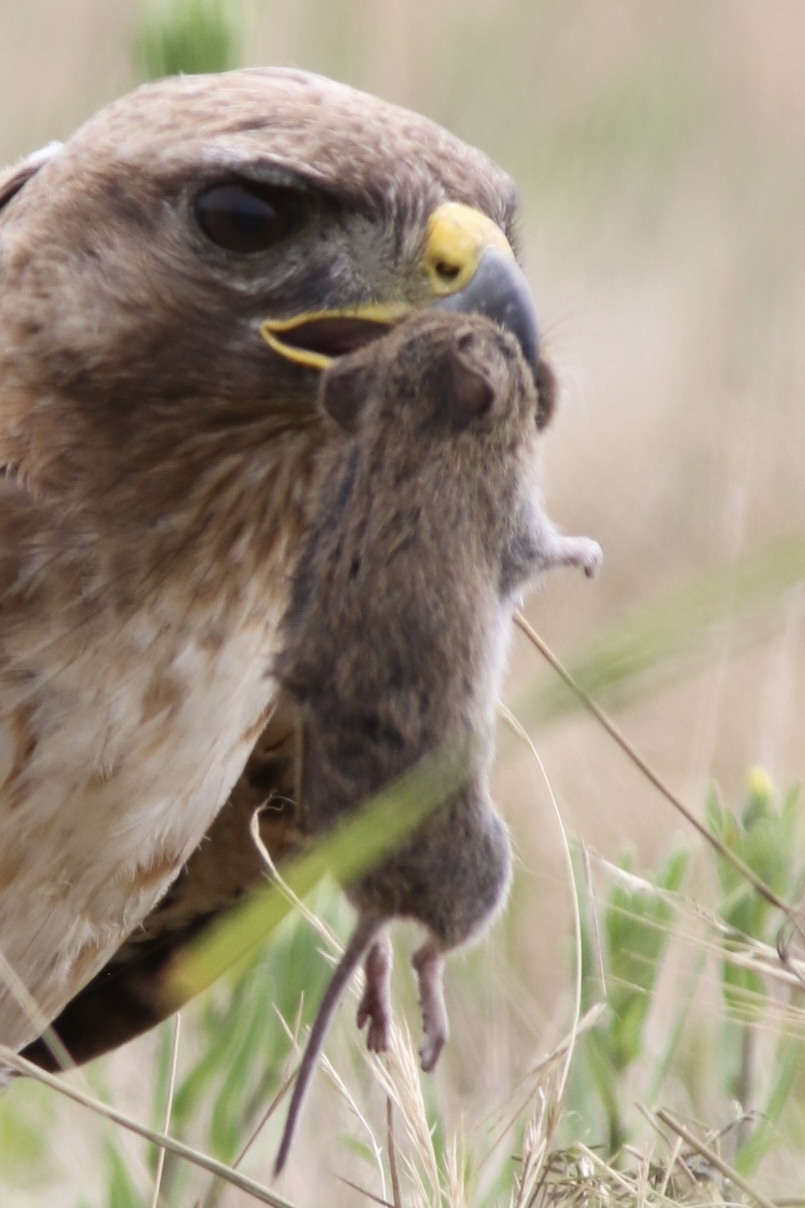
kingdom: Animalia
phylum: Chordata
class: Mammalia
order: Rodentia
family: Cricetidae
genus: Microtus
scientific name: Microtus californicus
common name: California vole
